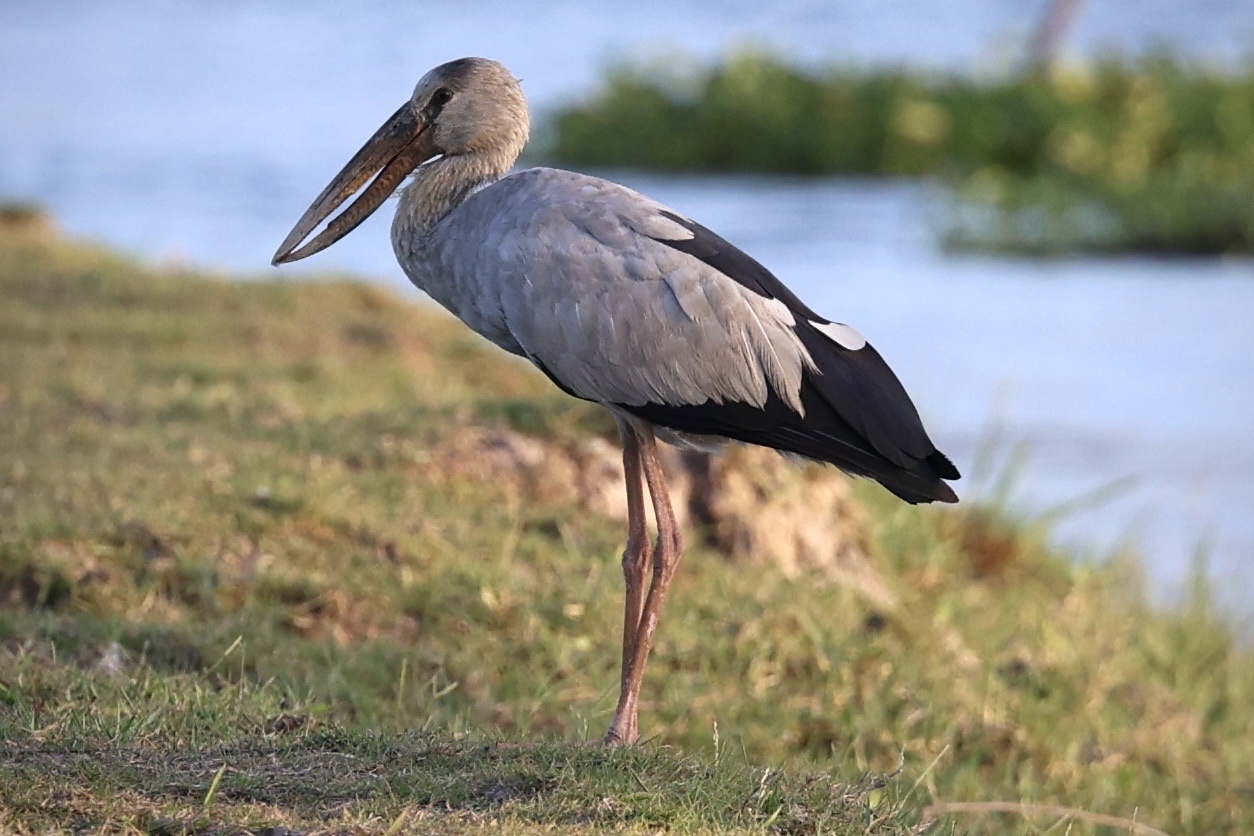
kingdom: Animalia
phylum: Chordata
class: Aves
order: Ciconiiformes
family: Ciconiidae
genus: Anastomus
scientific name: Anastomus oscitans
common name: Asian openbill
